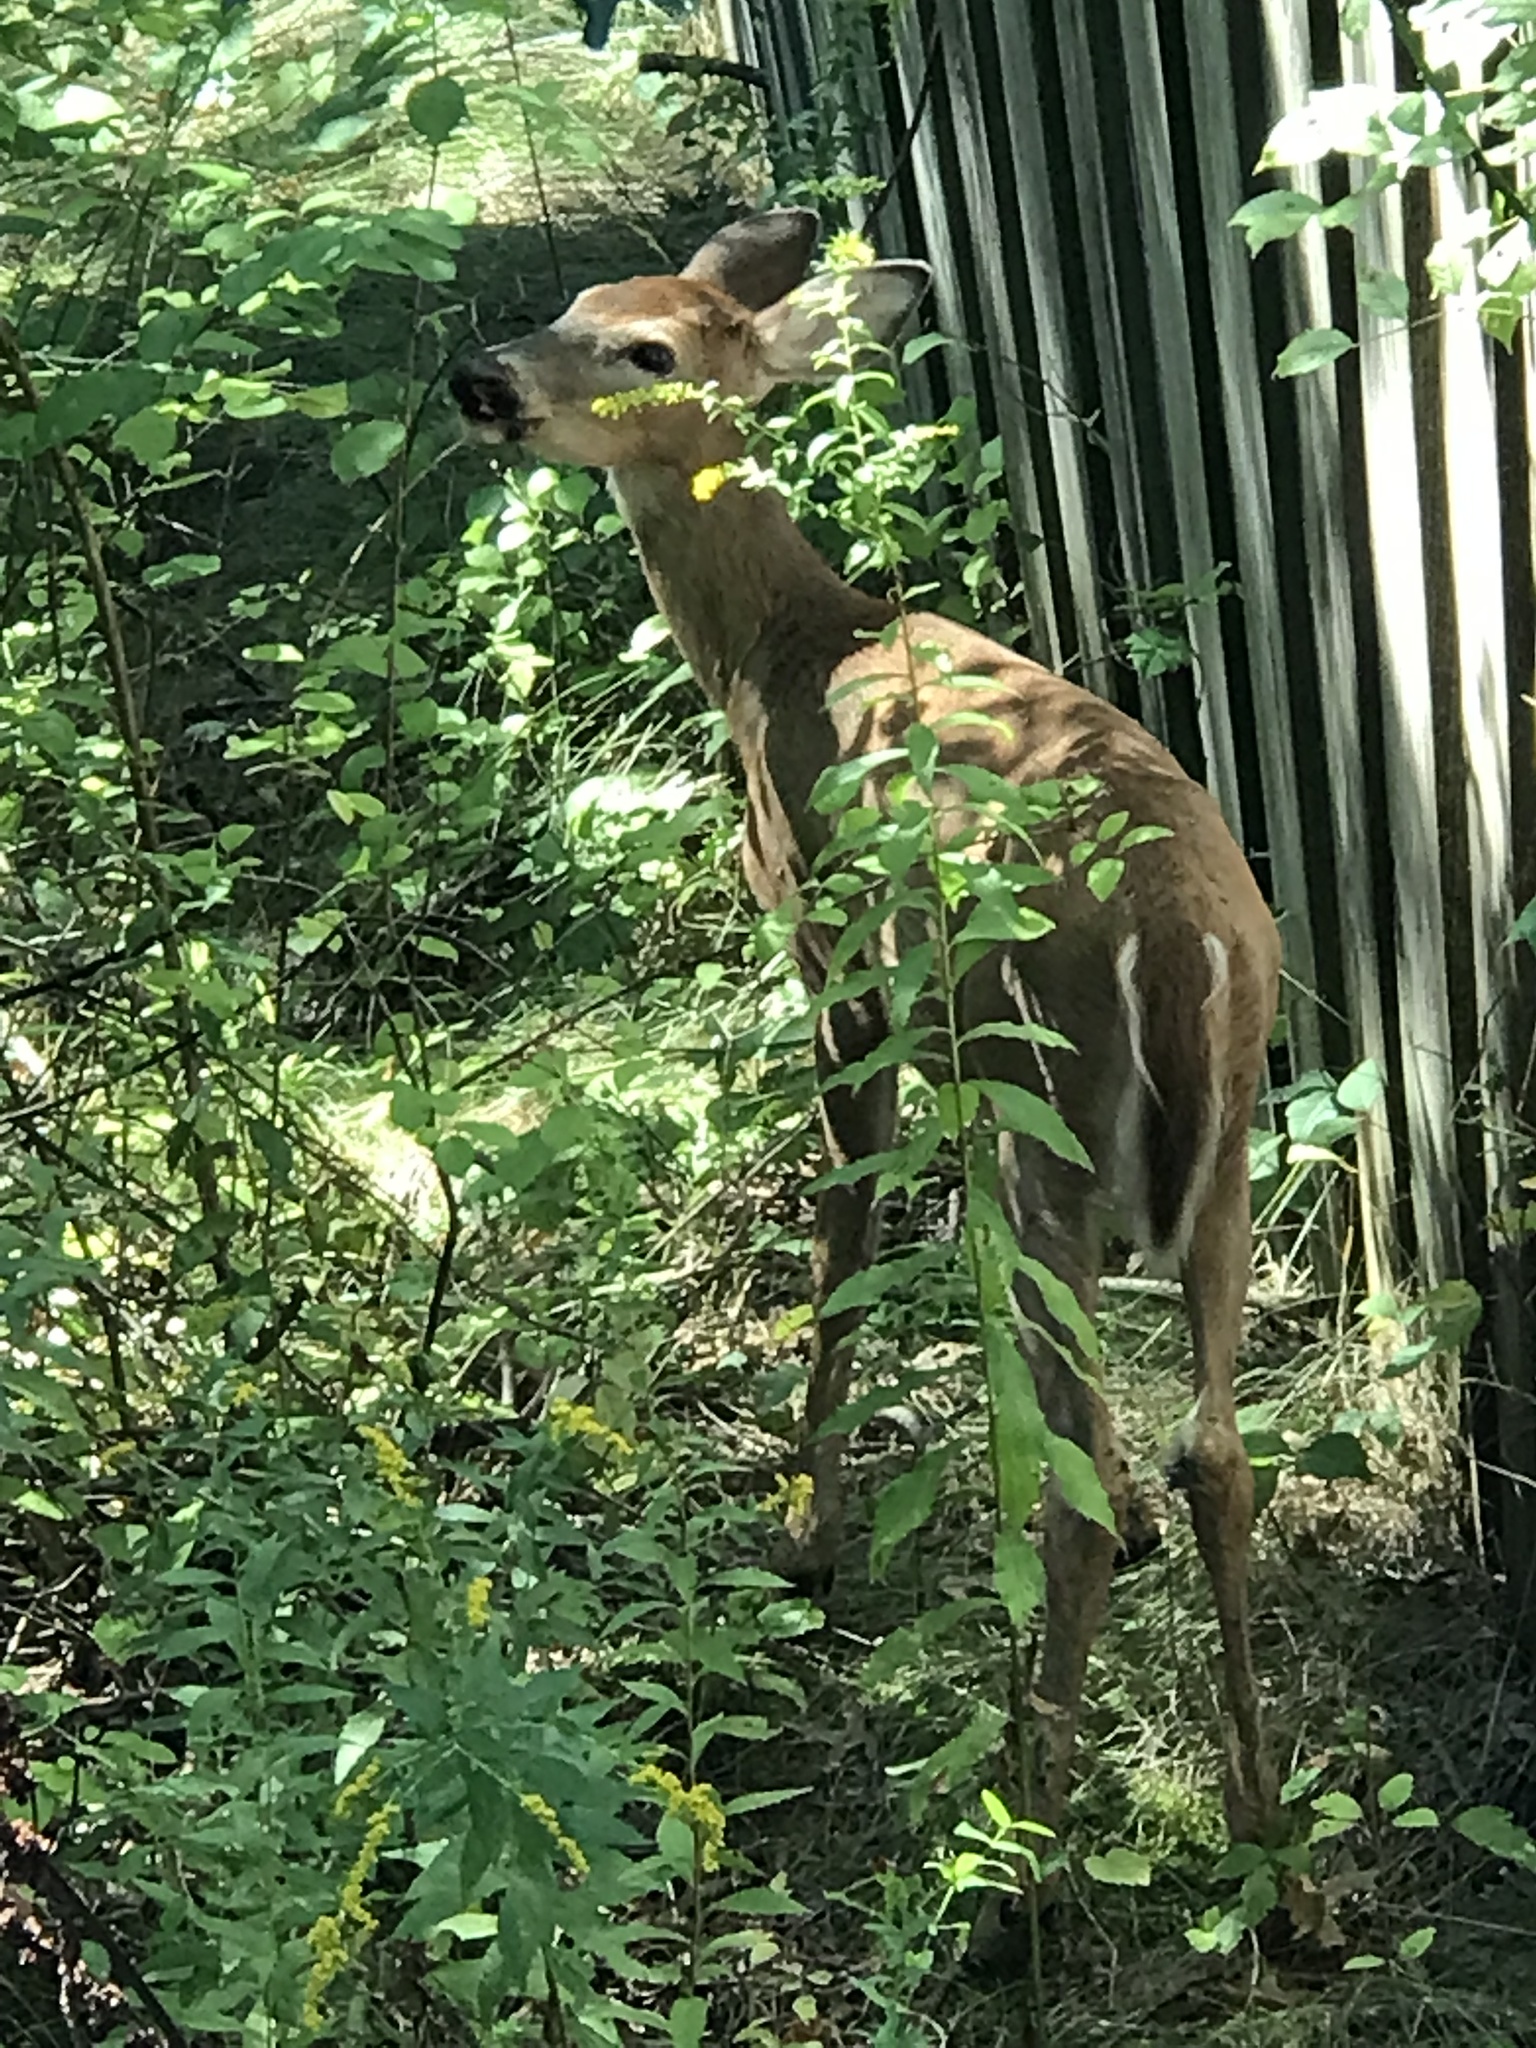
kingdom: Animalia
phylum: Chordata
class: Mammalia
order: Artiodactyla
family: Cervidae
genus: Odocoileus
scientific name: Odocoileus virginianus
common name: White-tailed deer
